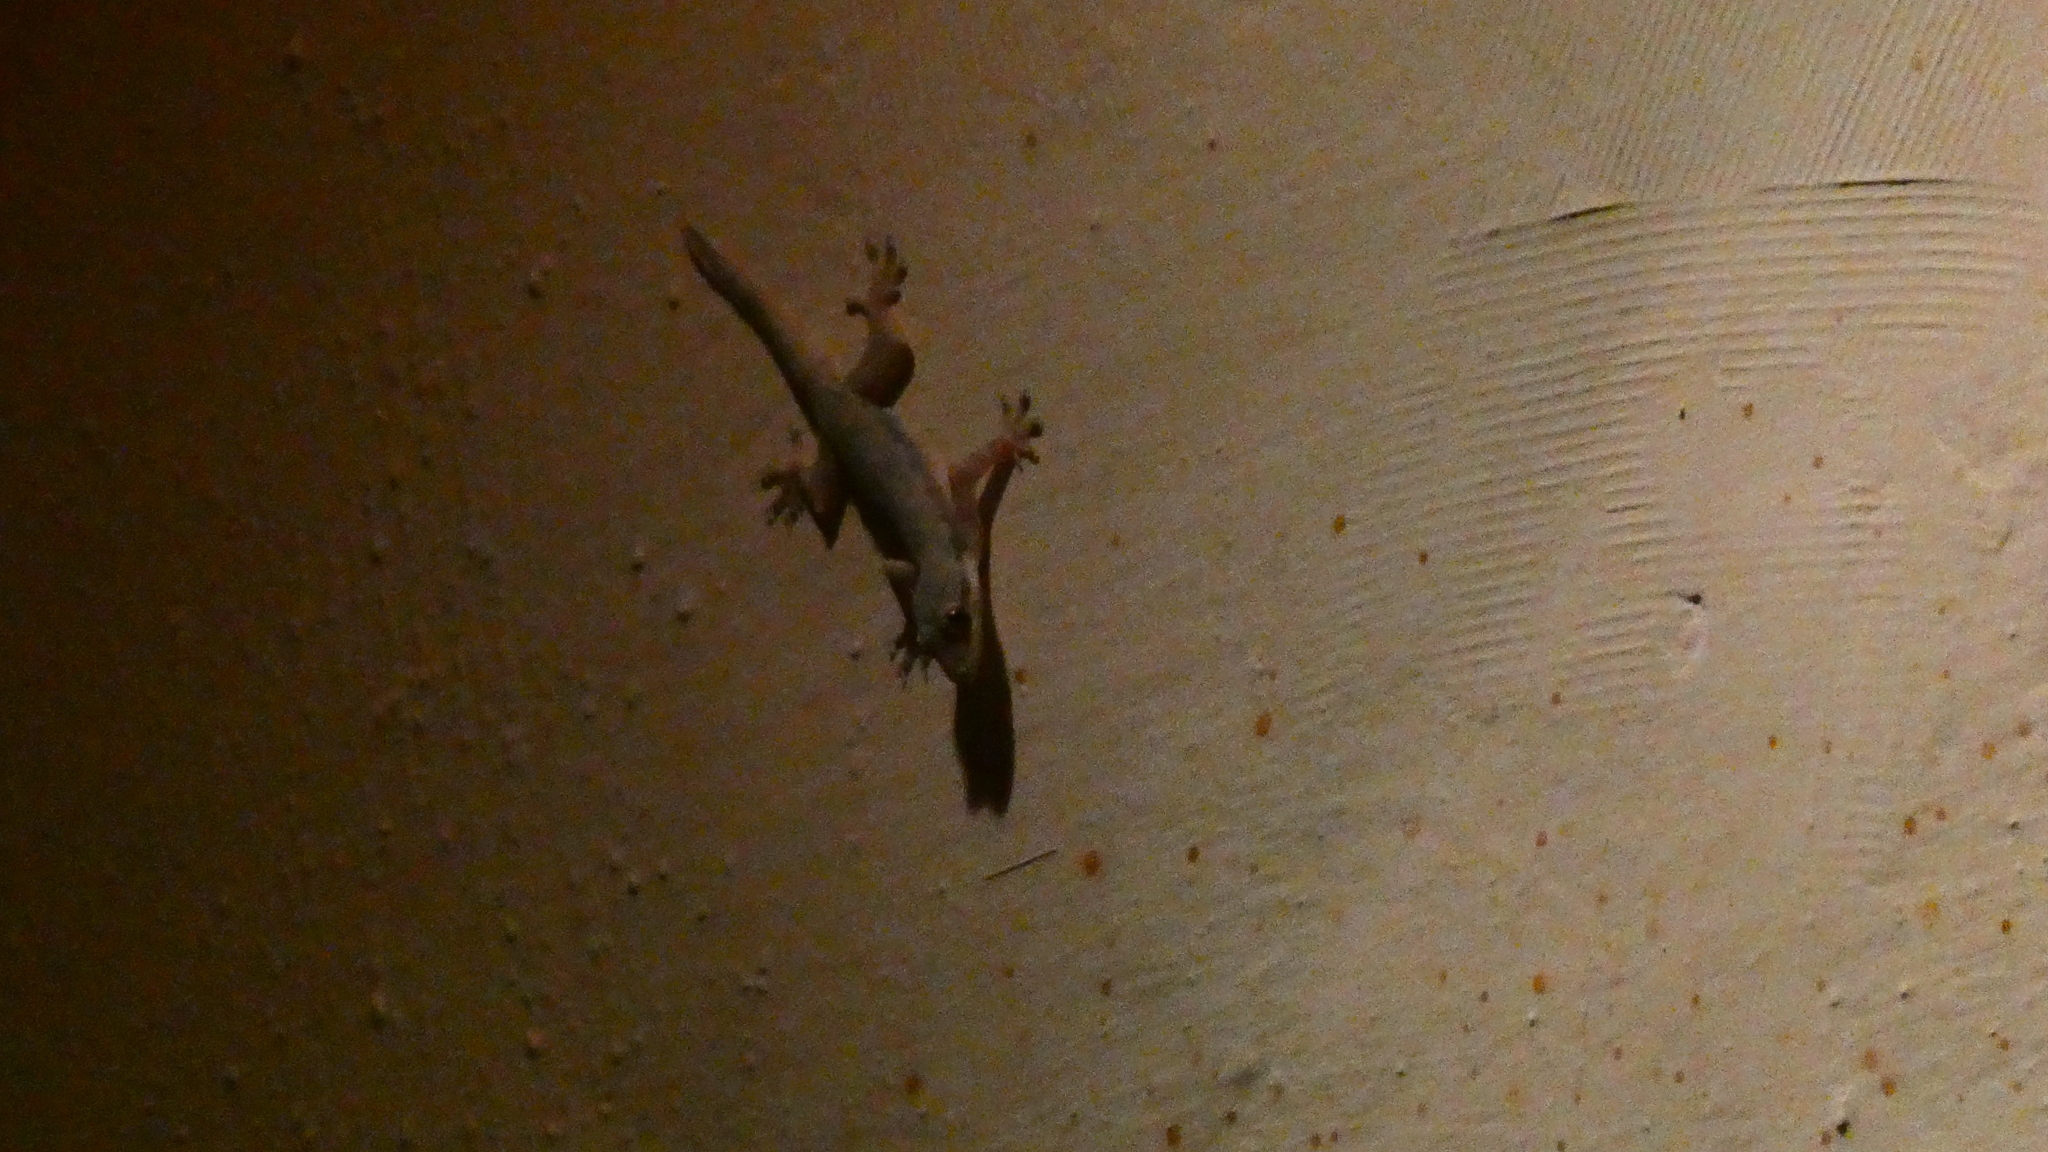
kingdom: Animalia
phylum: Chordata
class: Squamata
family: Gekkonidae
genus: Hemidactylus
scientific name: Hemidactylus platyurus
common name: Flat-tailed house gecko
